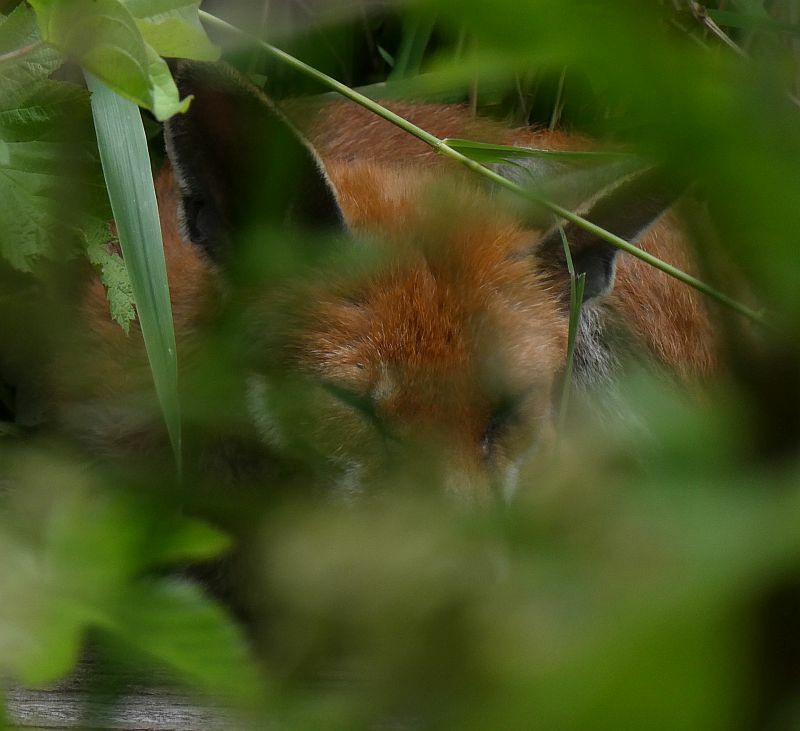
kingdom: Animalia
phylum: Chordata
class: Mammalia
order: Carnivora
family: Canidae
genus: Vulpes
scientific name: Vulpes vulpes
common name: Red fox
